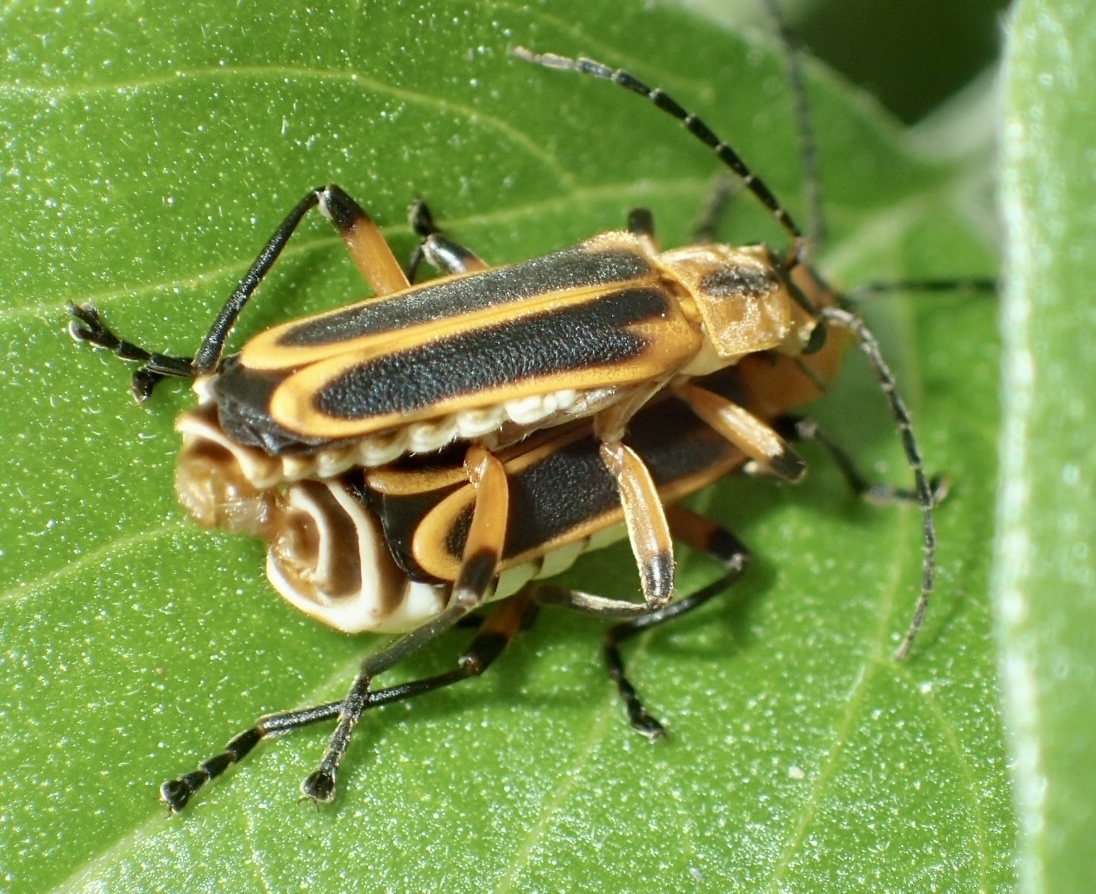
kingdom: Animalia
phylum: Arthropoda
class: Insecta
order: Coleoptera
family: Cantharidae
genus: Chauliognathus
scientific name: Chauliognathus marginatus
